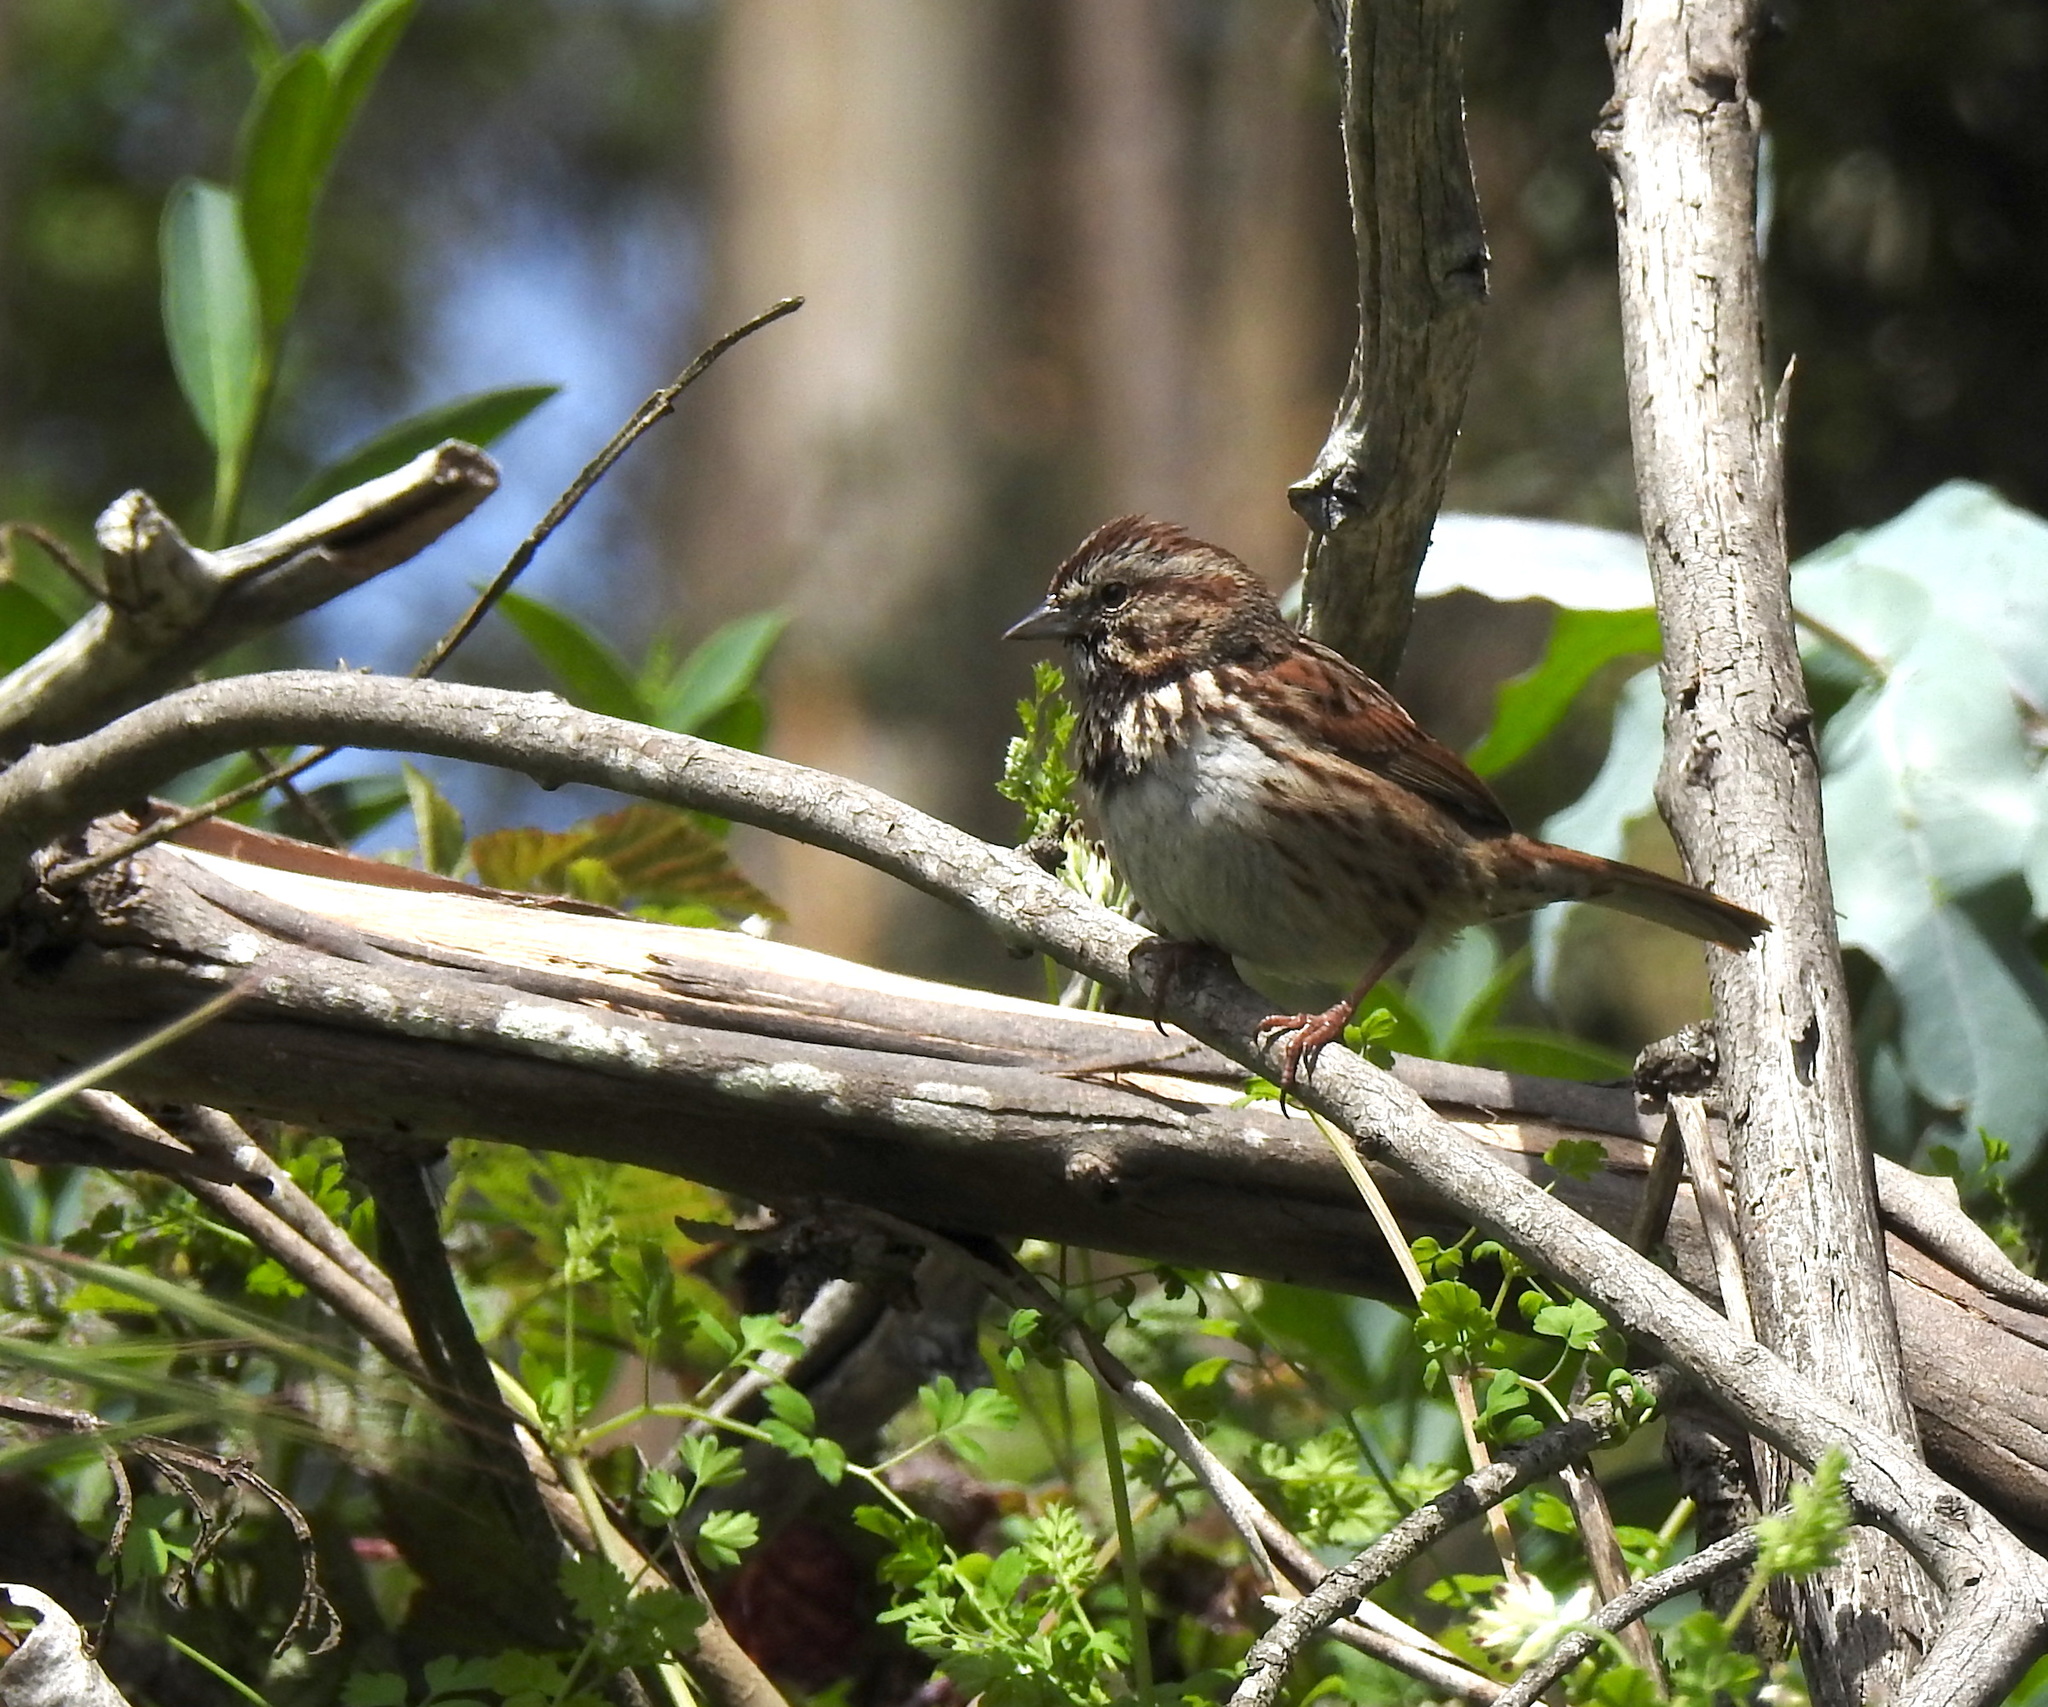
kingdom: Animalia
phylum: Chordata
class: Aves
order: Passeriformes
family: Passerellidae
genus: Melospiza
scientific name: Melospiza melodia
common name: Song sparrow
